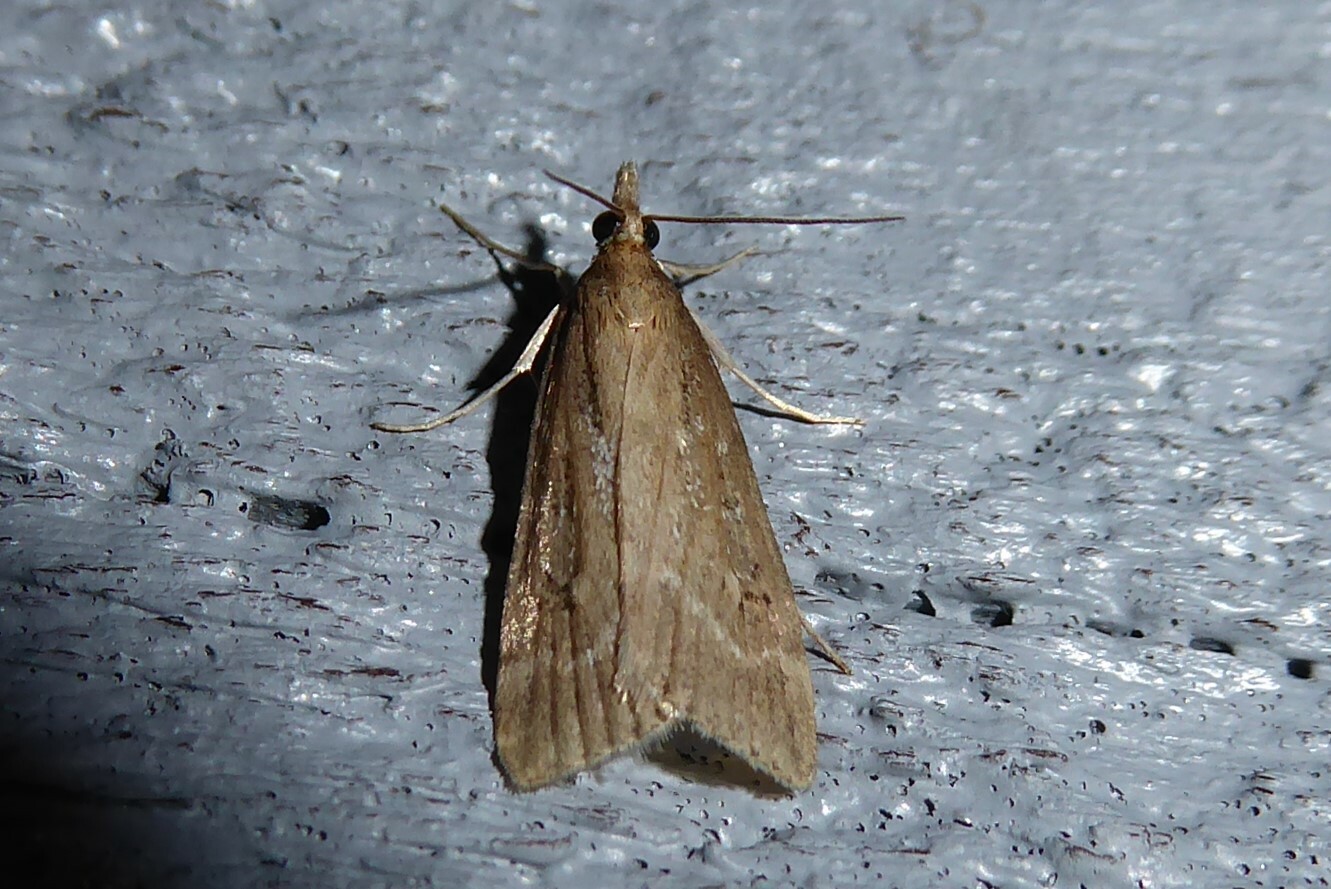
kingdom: Animalia
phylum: Arthropoda
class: Insecta
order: Lepidoptera
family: Crambidae
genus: Eudonia
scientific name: Eudonia octophora
